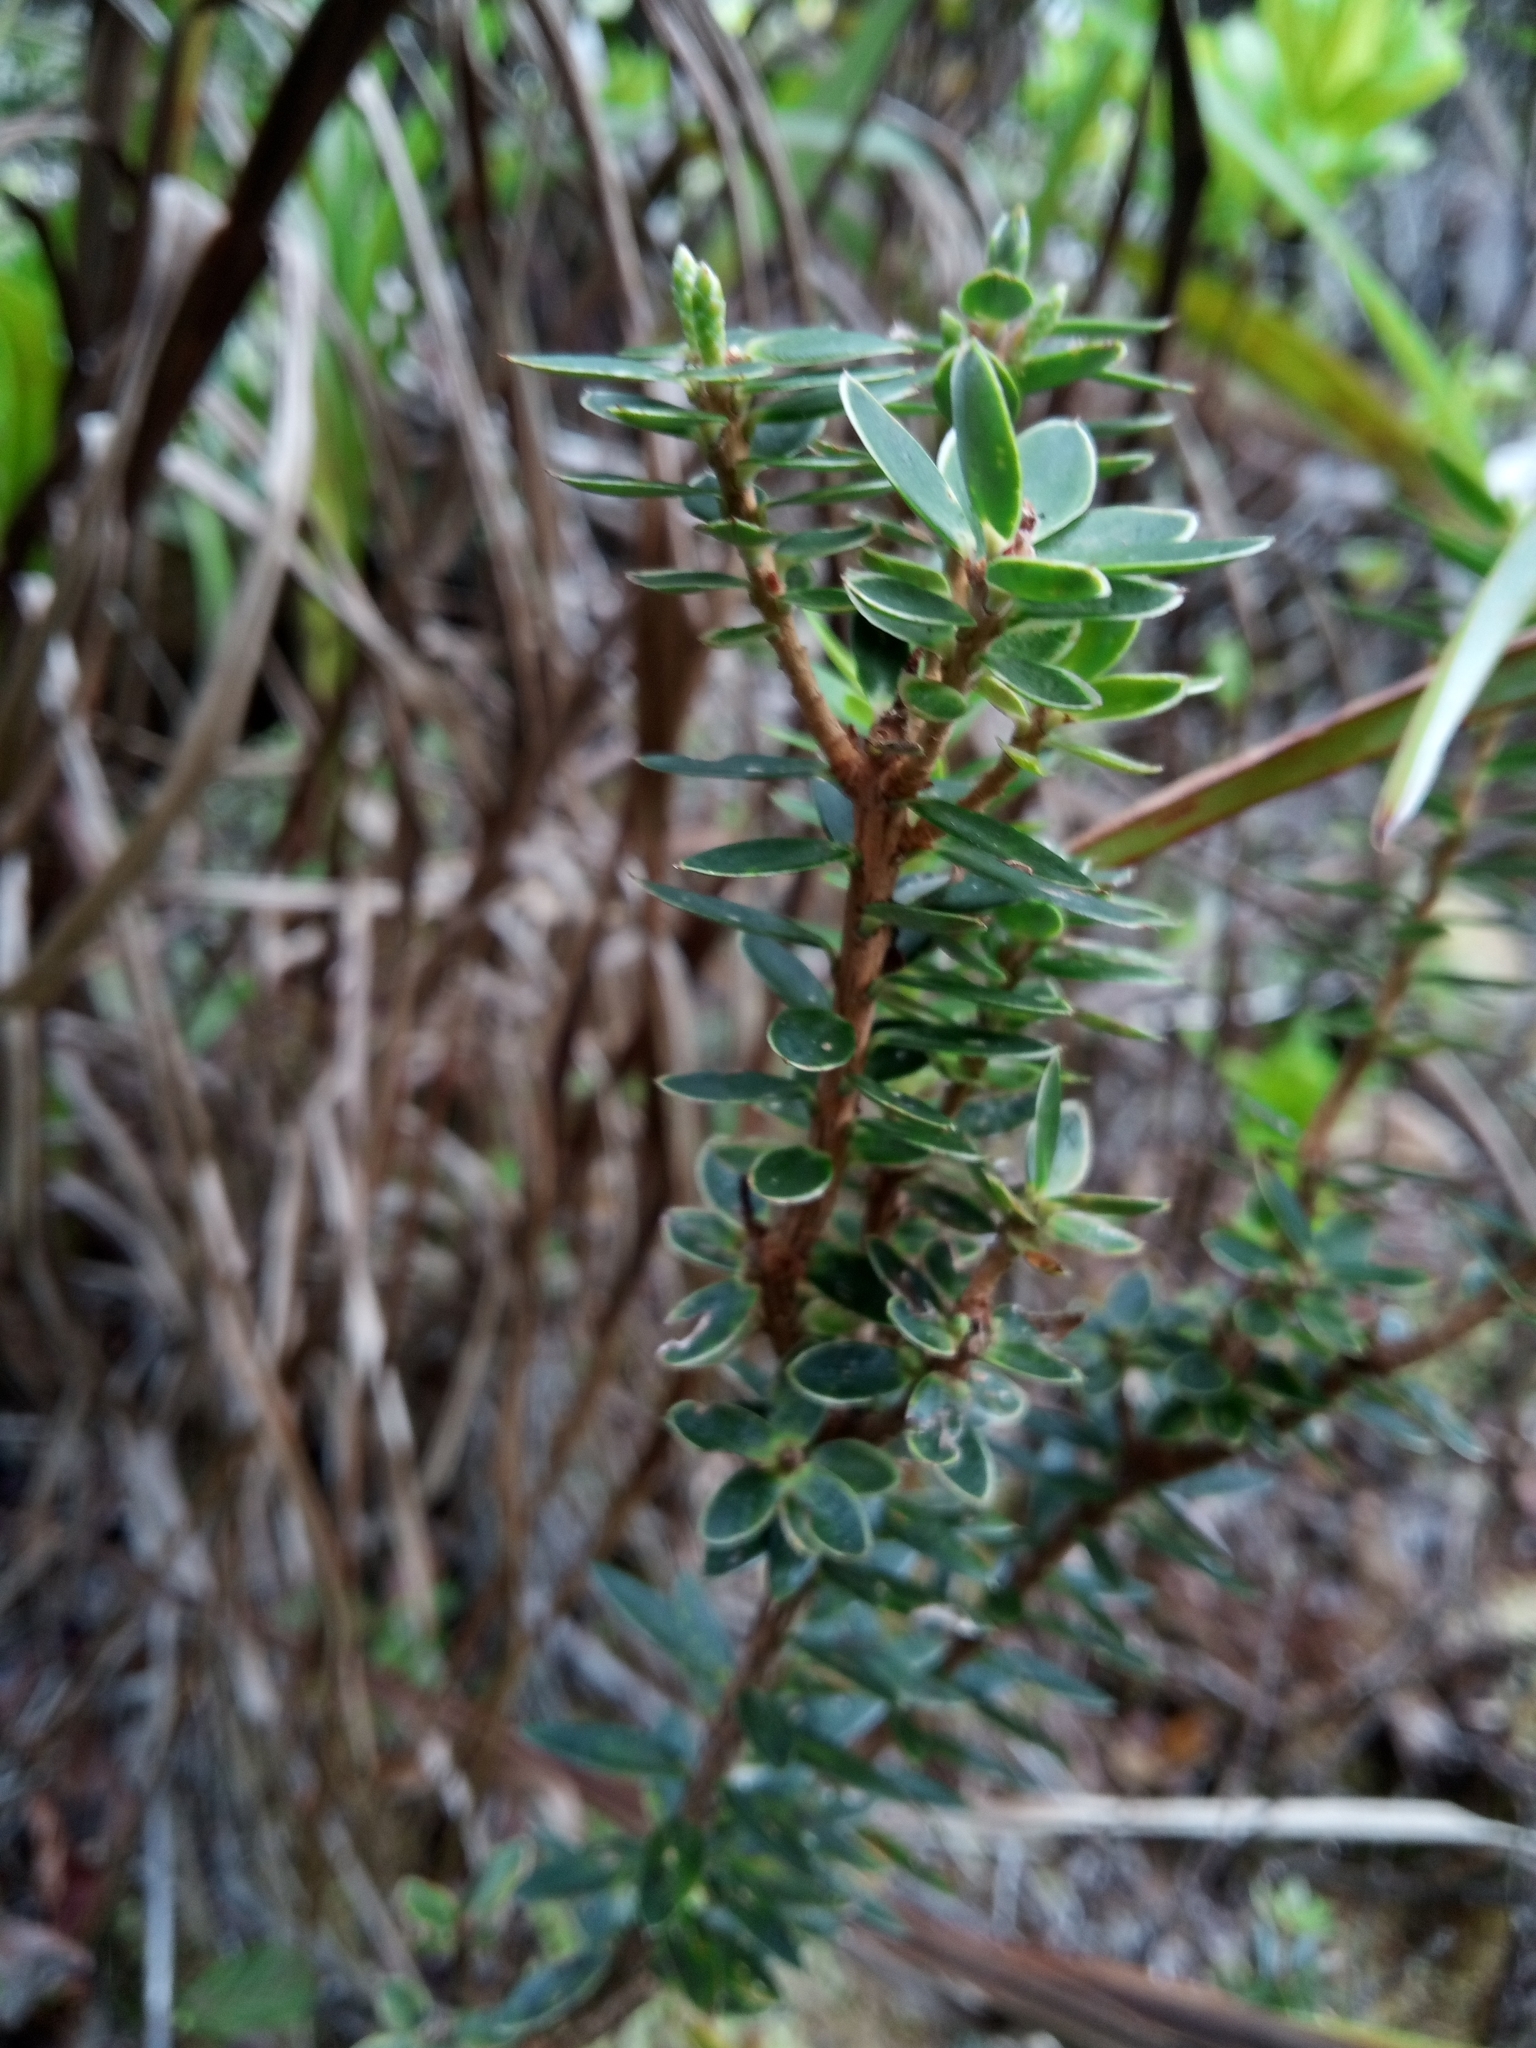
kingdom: Plantae
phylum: Tracheophyta
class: Magnoliopsida
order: Ericales
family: Ericaceae
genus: Leptecophylla
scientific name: Leptecophylla tameiameiae
